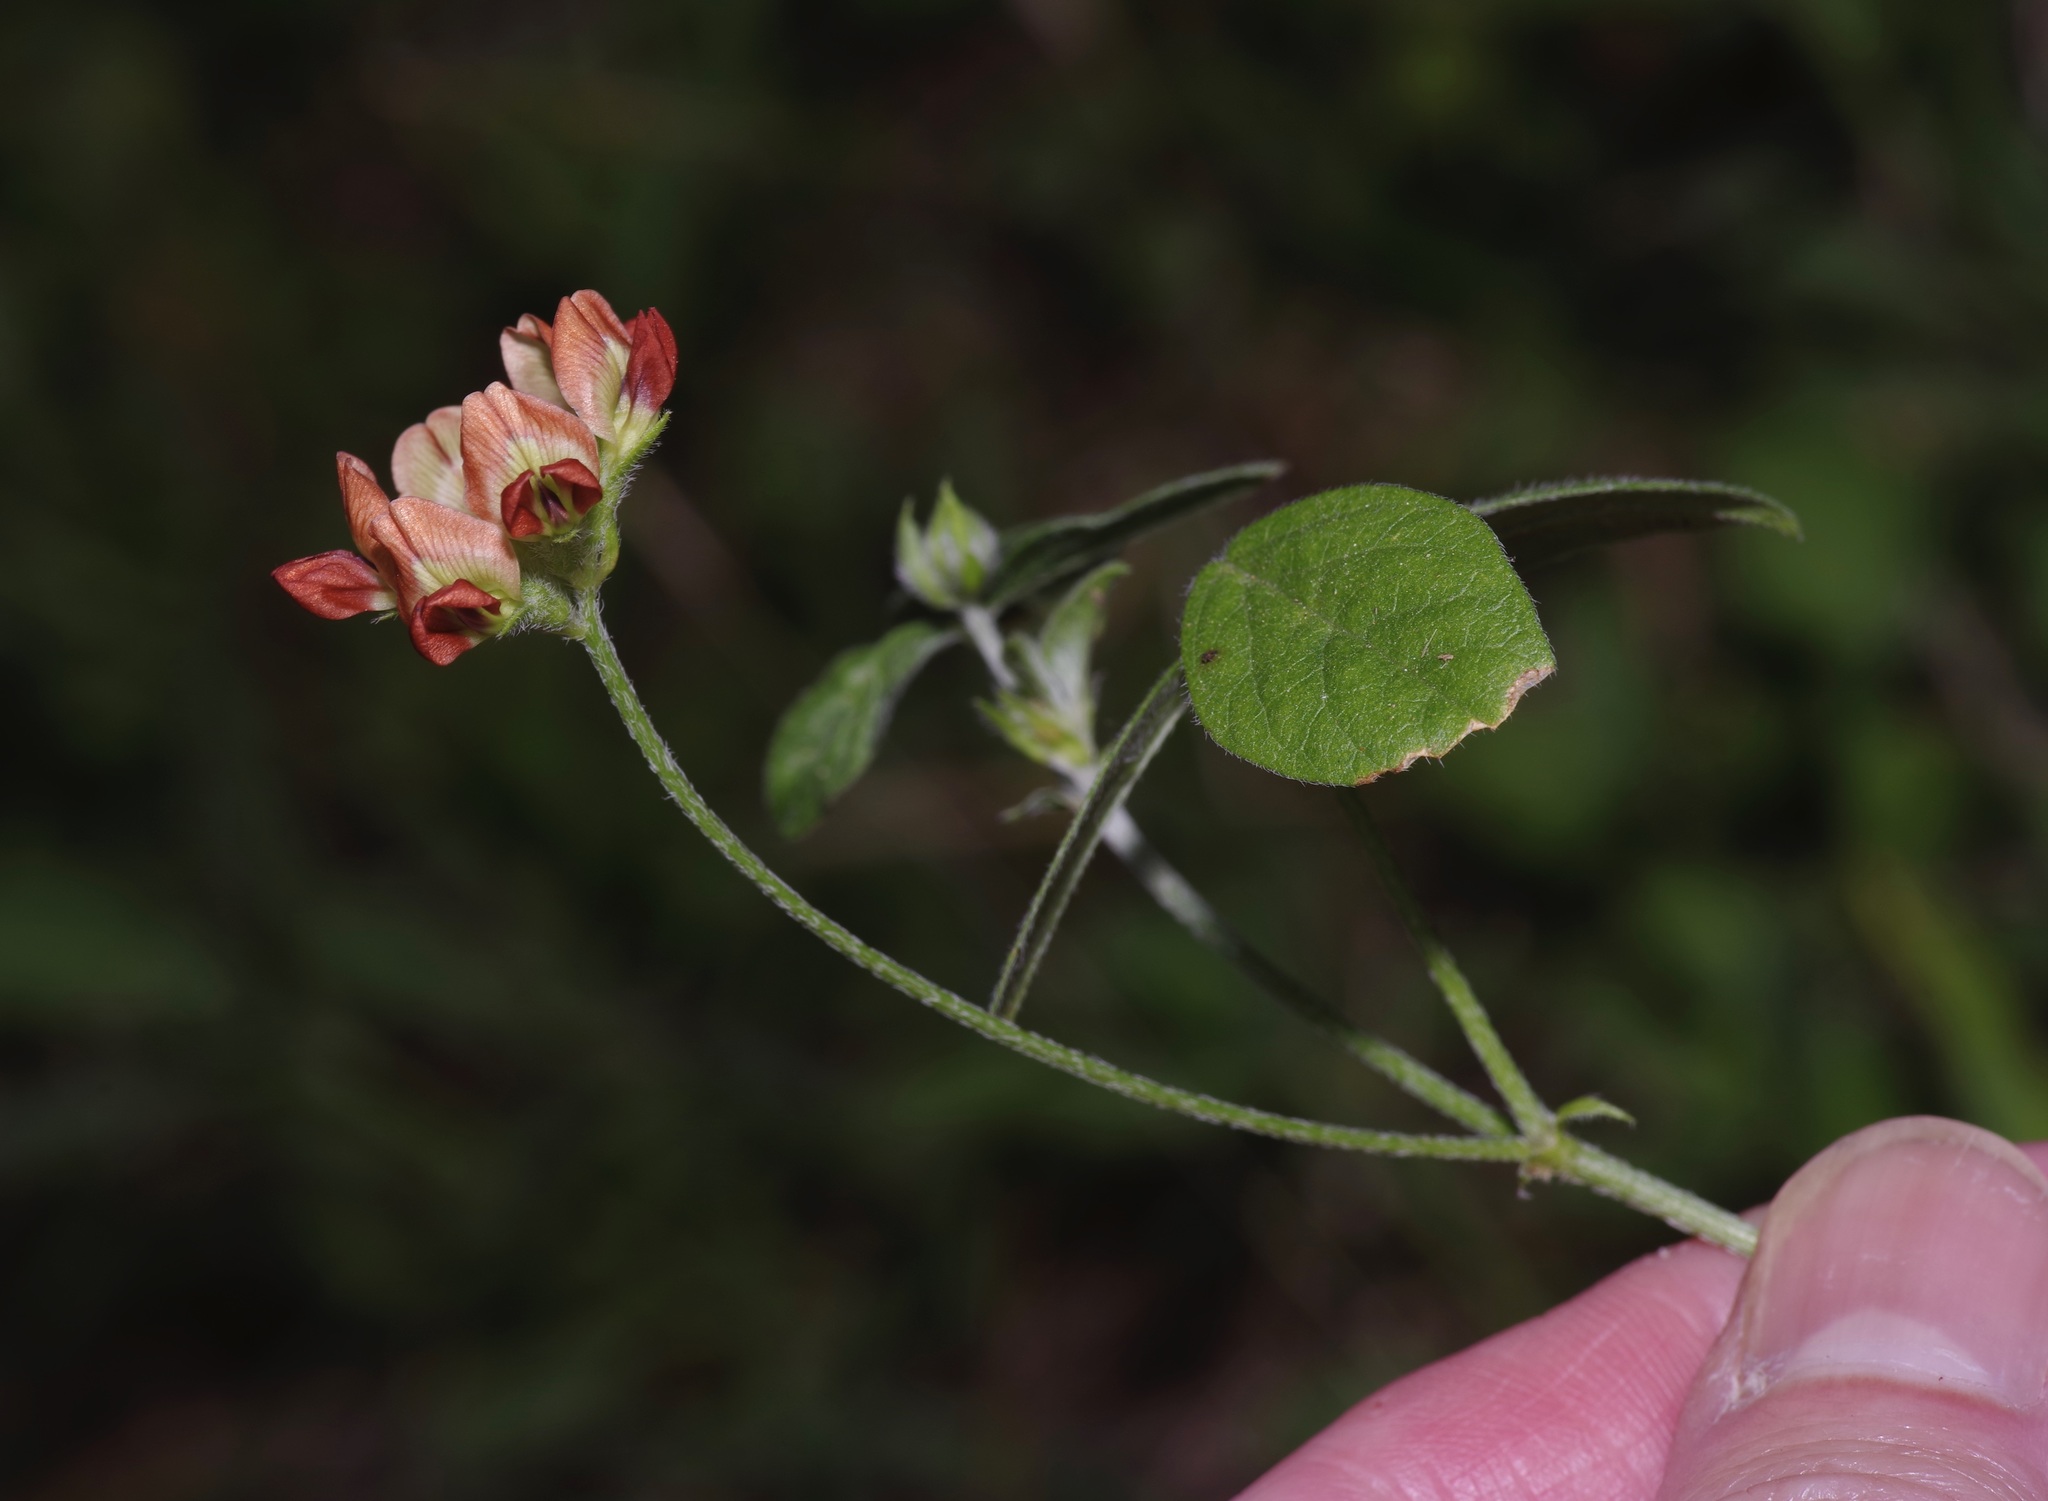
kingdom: Plantae
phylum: Tracheophyta
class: Magnoliopsida
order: Fabales
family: Fabaceae
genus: Pediomelum
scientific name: Pediomelum rhombifolium
